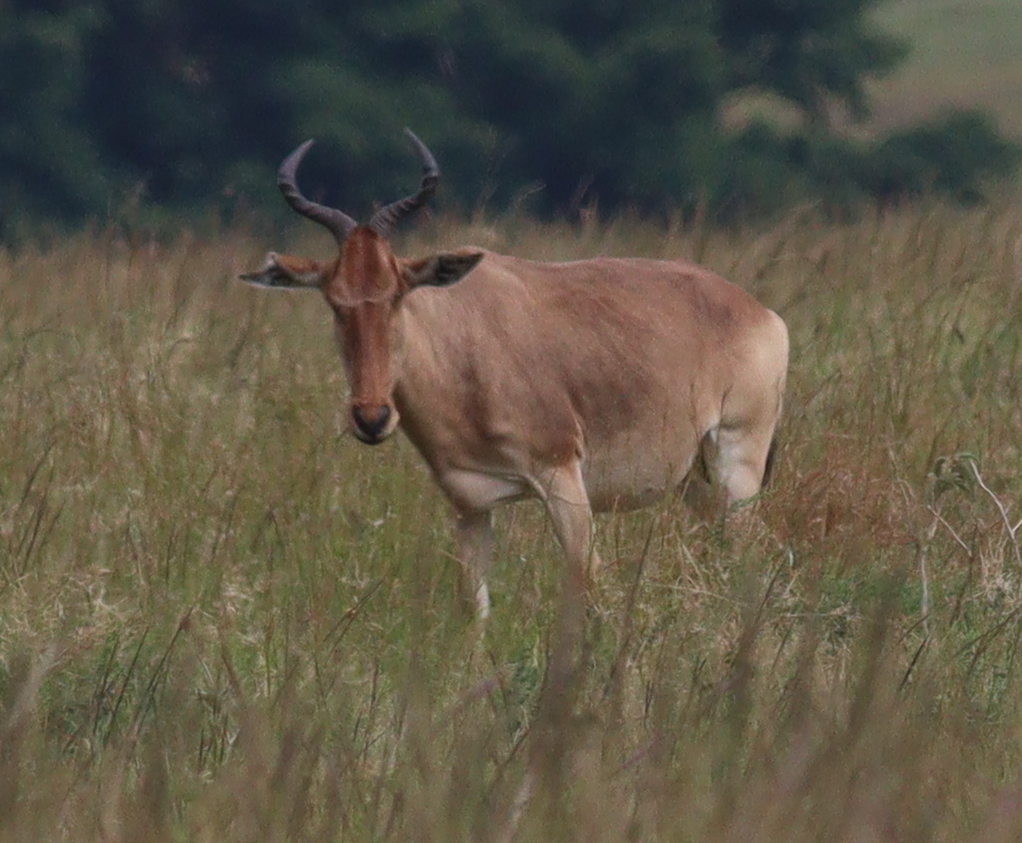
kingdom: Animalia
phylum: Chordata
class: Mammalia
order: Artiodactyla
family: Bovidae
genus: Alcelaphus
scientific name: Alcelaphus buselaphus
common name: Hartebeest
